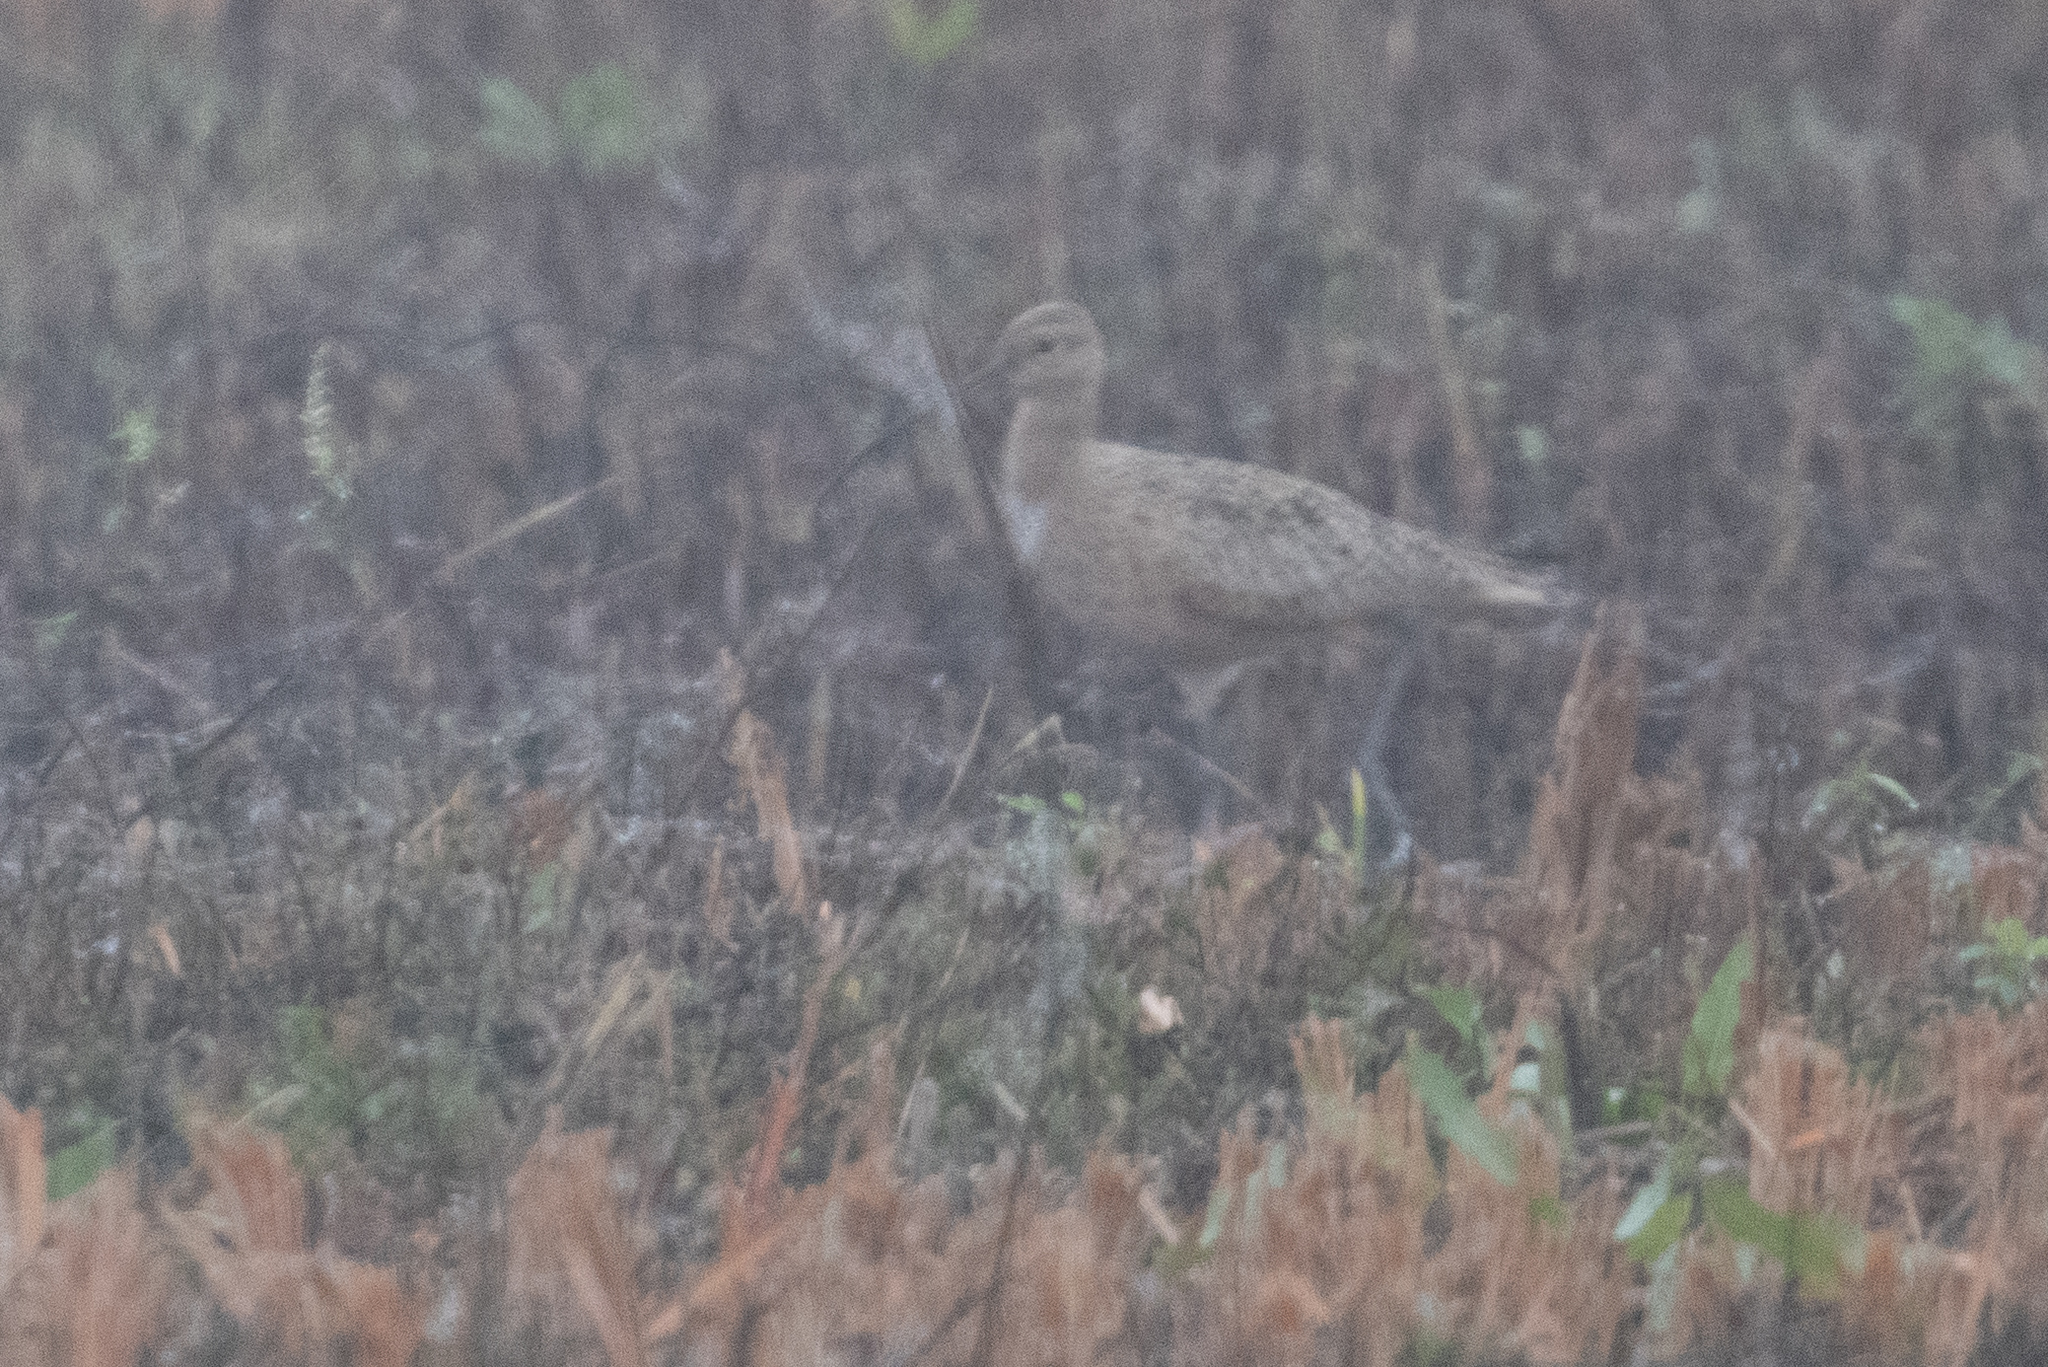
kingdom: Animalia
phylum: Chordata
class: Aves
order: Charadriiformes
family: Scolopacidae
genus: Numenius
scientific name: Numenius americanus
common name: Long-billed curlew
